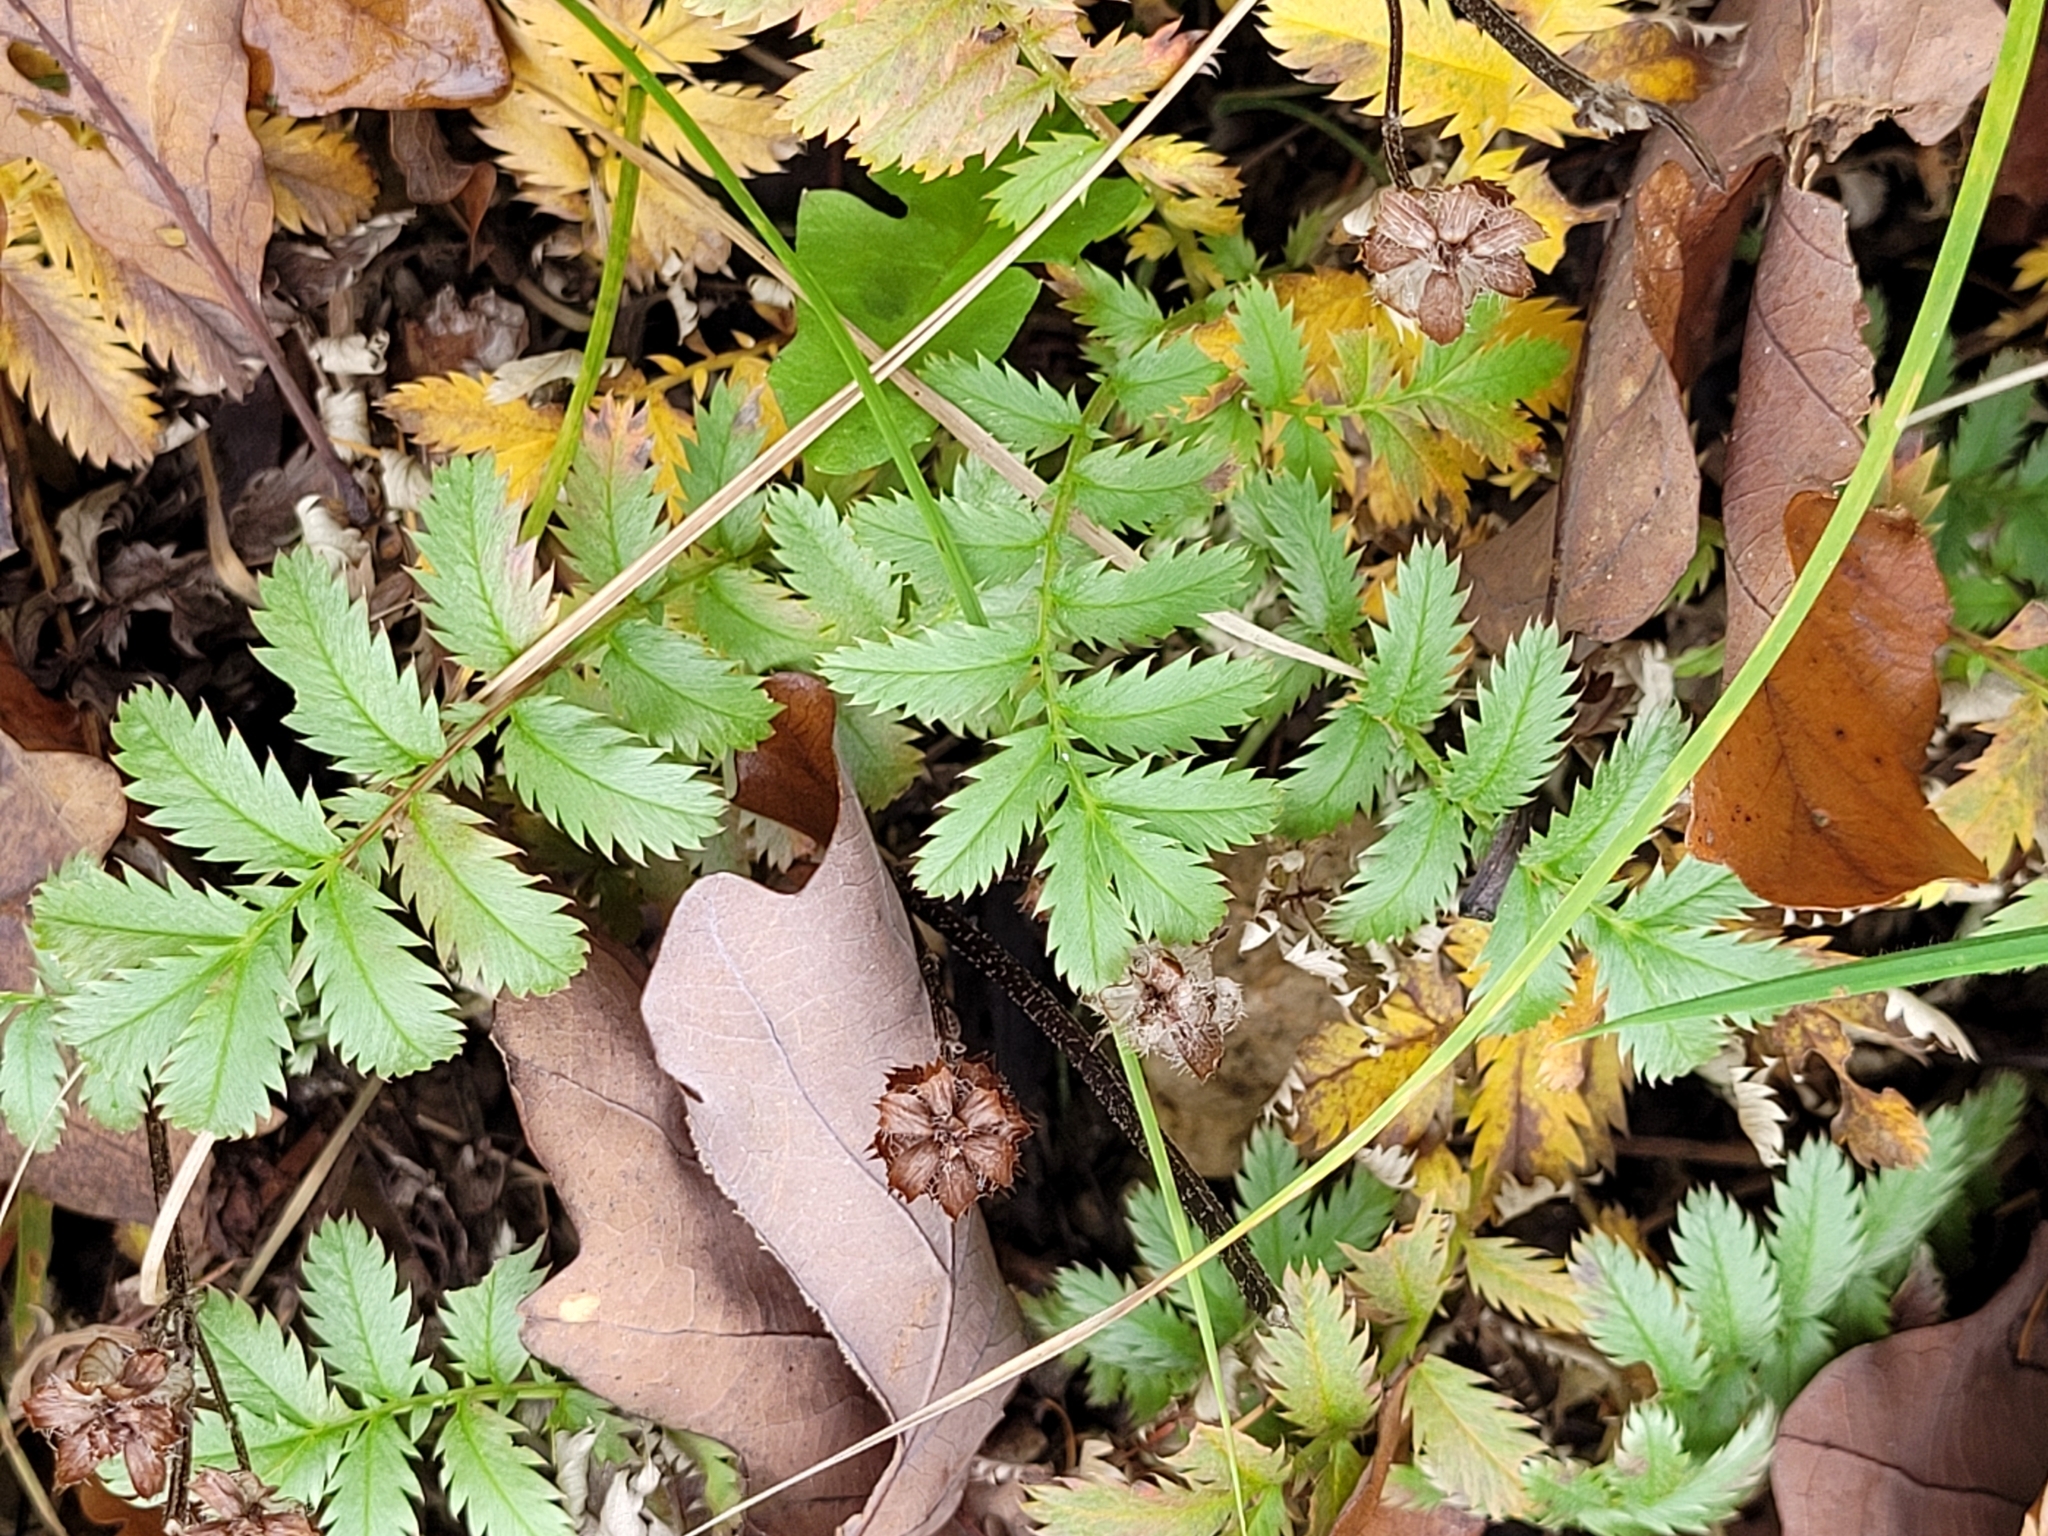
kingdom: Plantae
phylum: Tracheophyta
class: Magnoliopsida
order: Rosales
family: Rosaceae
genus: Argentina
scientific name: Argentina anserina
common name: Common silverweed
